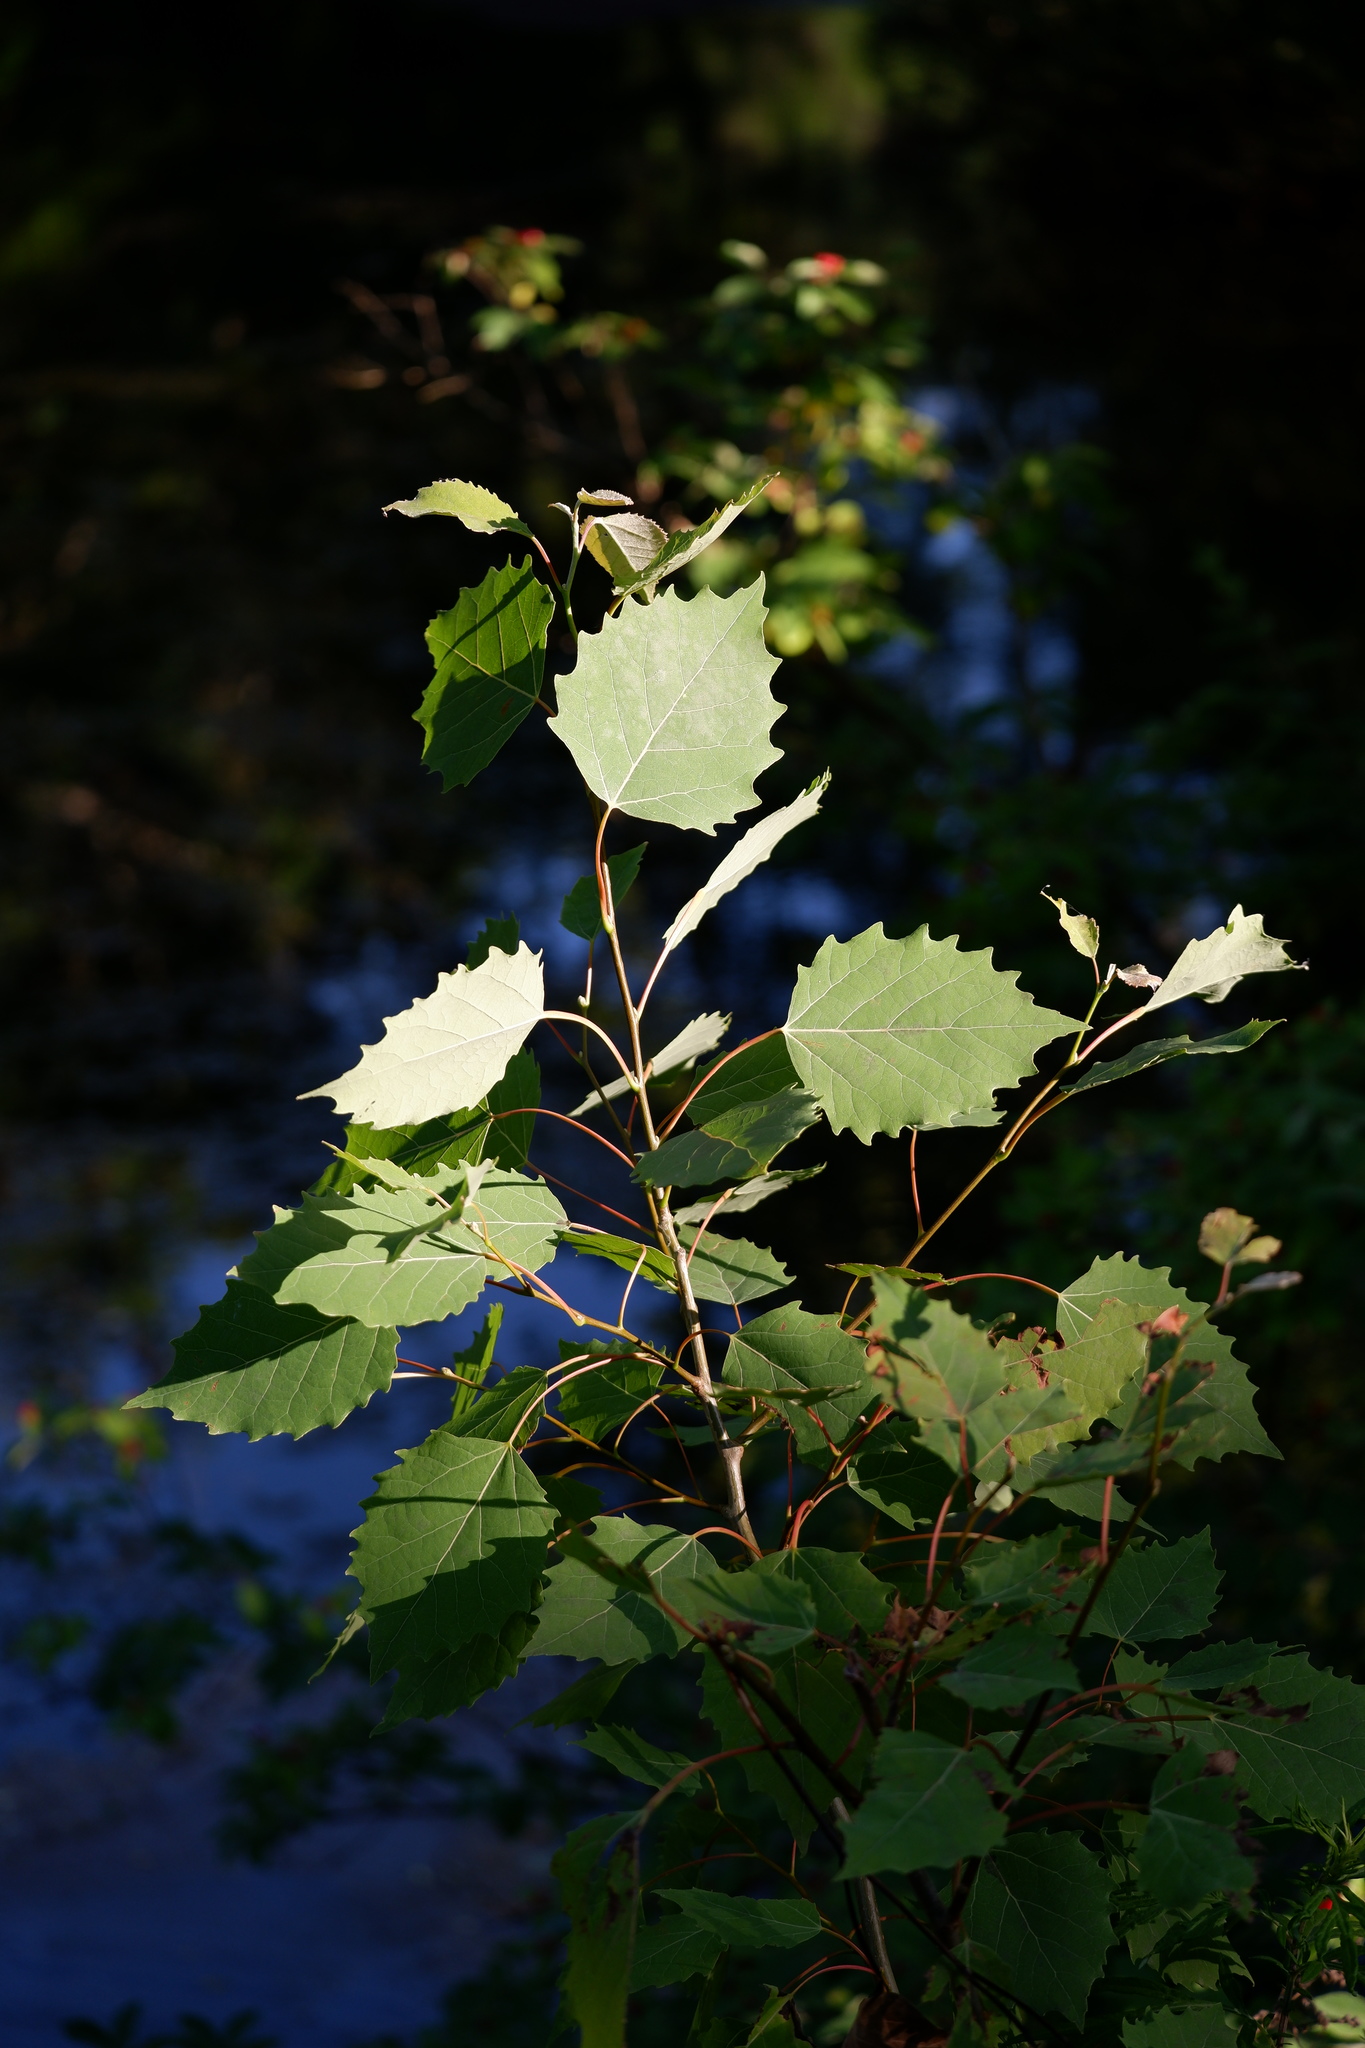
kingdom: Plantae
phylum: Tracheophyta
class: Magnoliopsida
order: Malpighiales
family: Salicaceae
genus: Populus
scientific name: Populus grandidentata
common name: Bigtooth aspen
